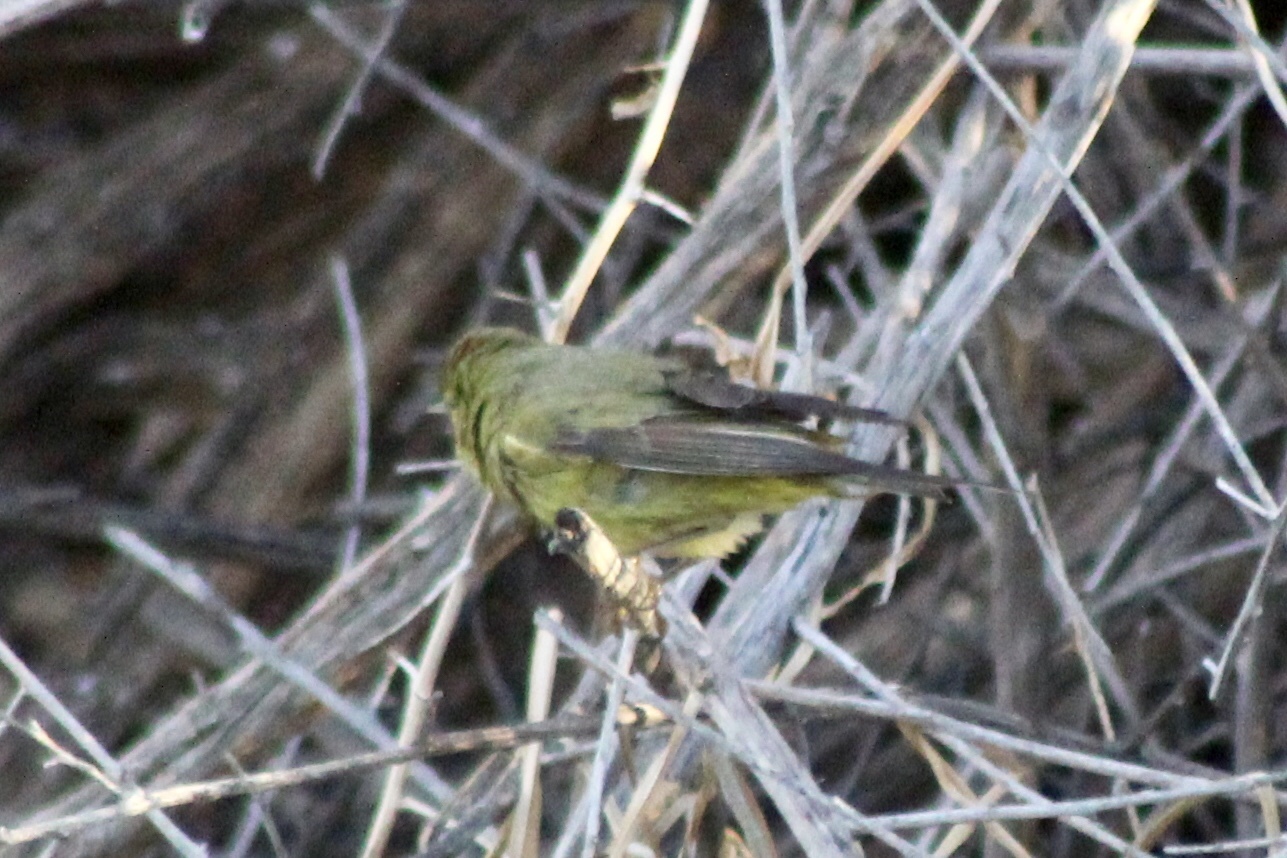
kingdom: Animalia
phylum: Chordata
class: Aves
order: Passeriformes
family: Parulidae
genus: Leiothlypis
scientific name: Leiothlypis celata
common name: Orange-crowned warbler
